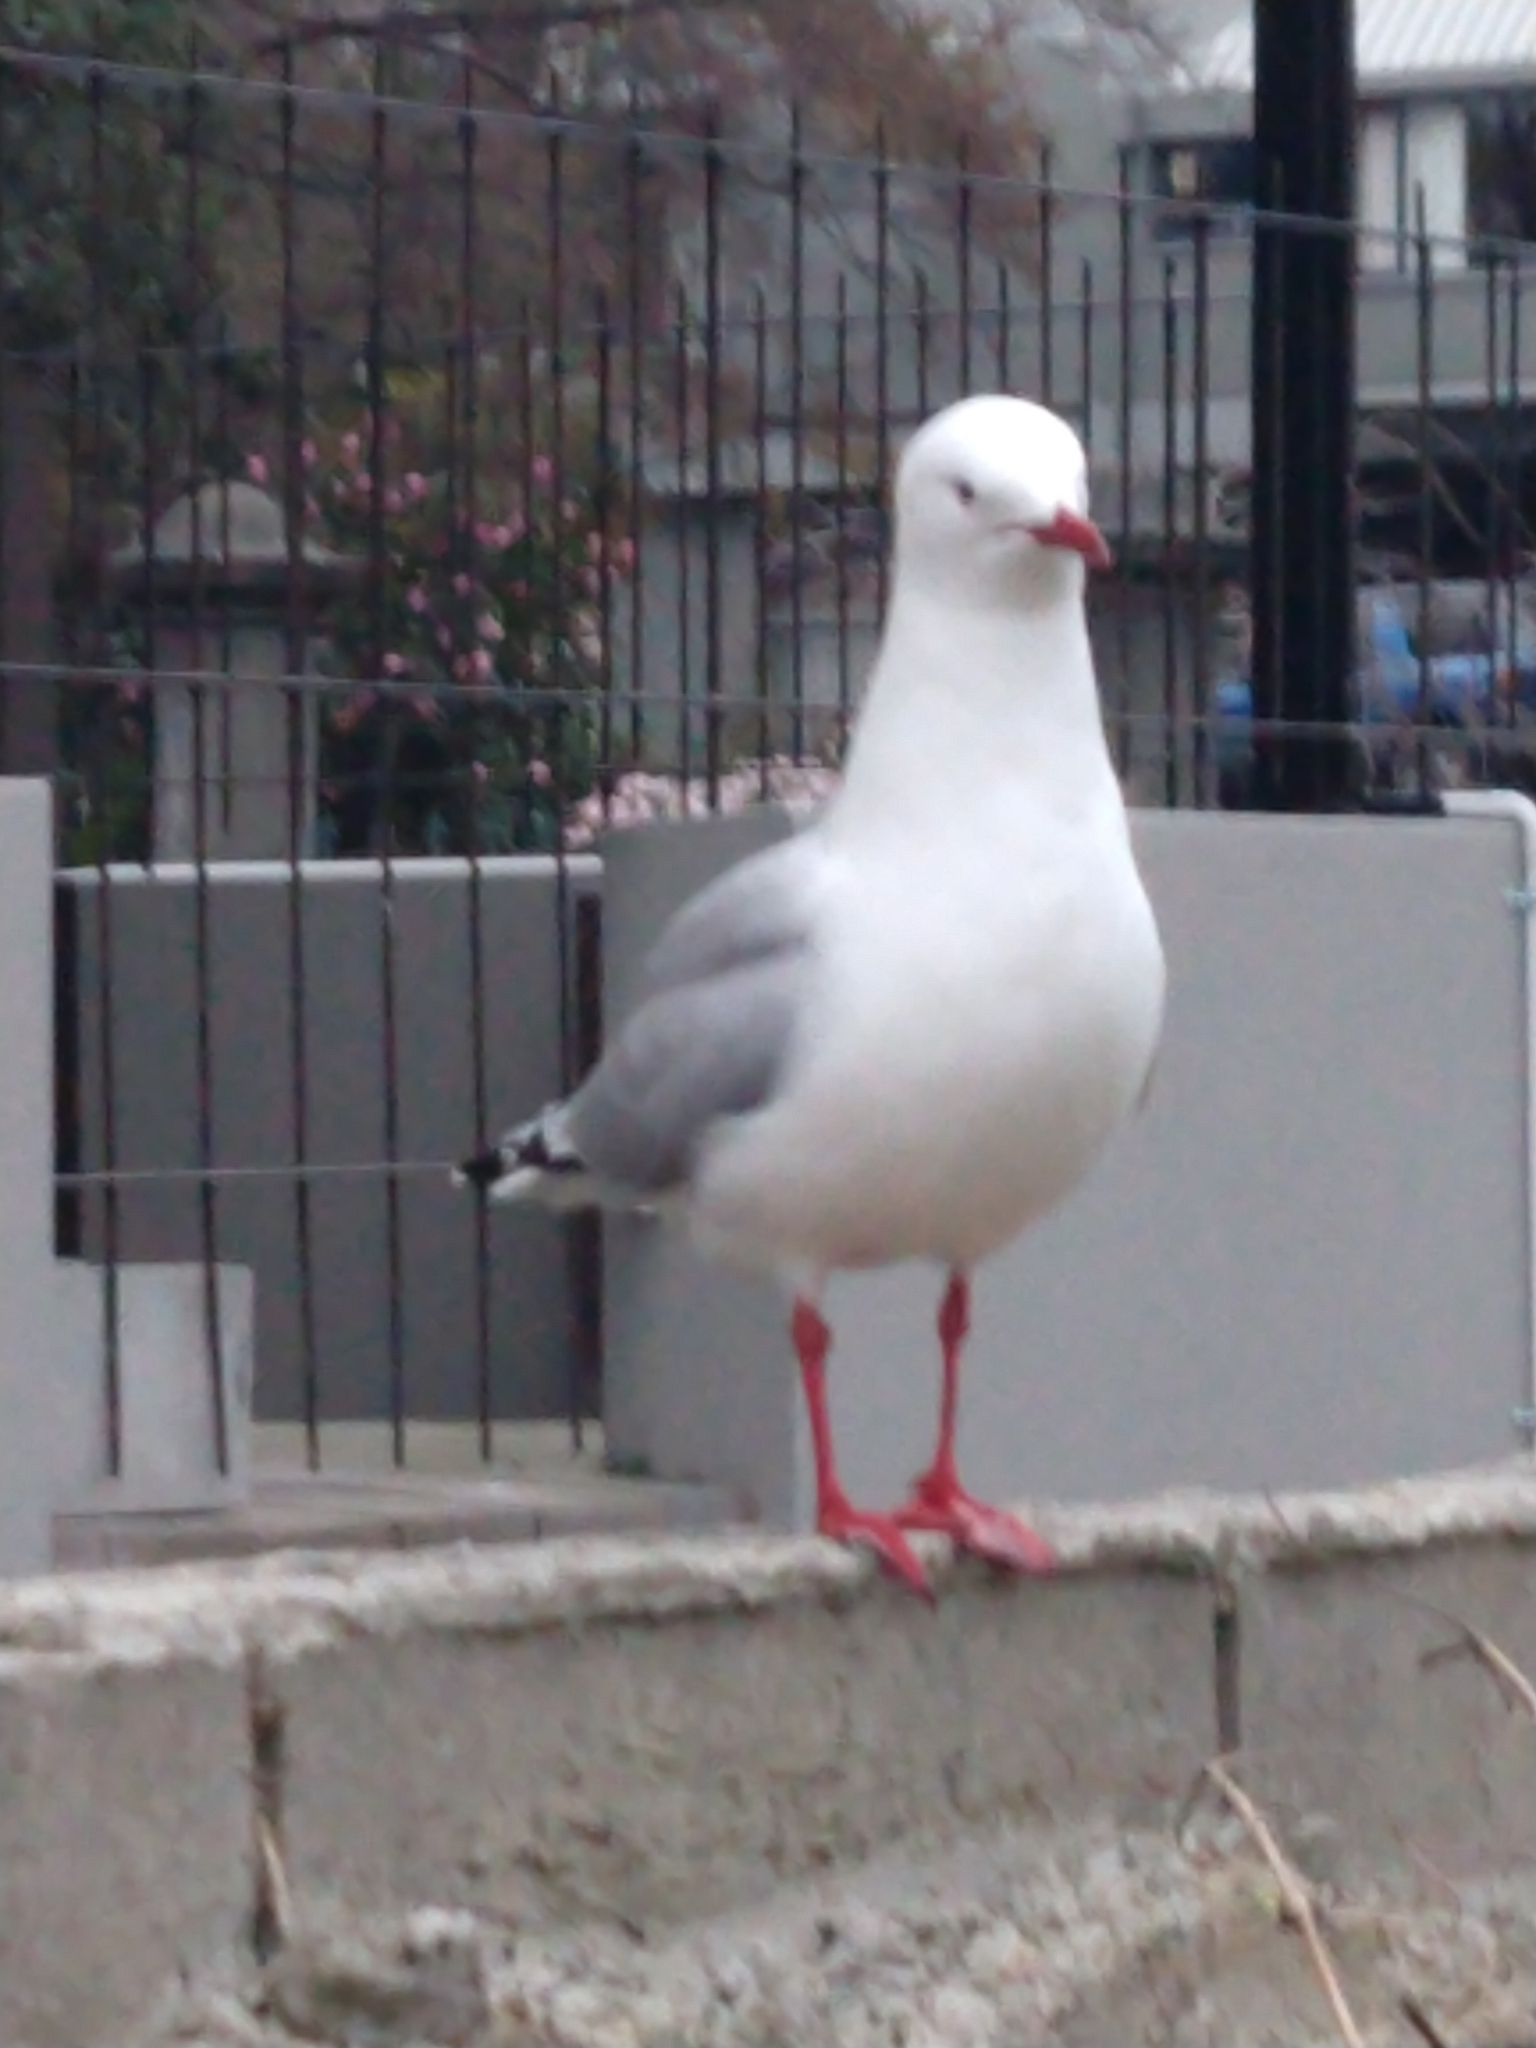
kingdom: Animalia
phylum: Chordata
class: Aves
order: Charadriiformes
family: Laridae
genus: Chroicocephalus
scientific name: Chroicocephalus novaehollandiae
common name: Silver gull
